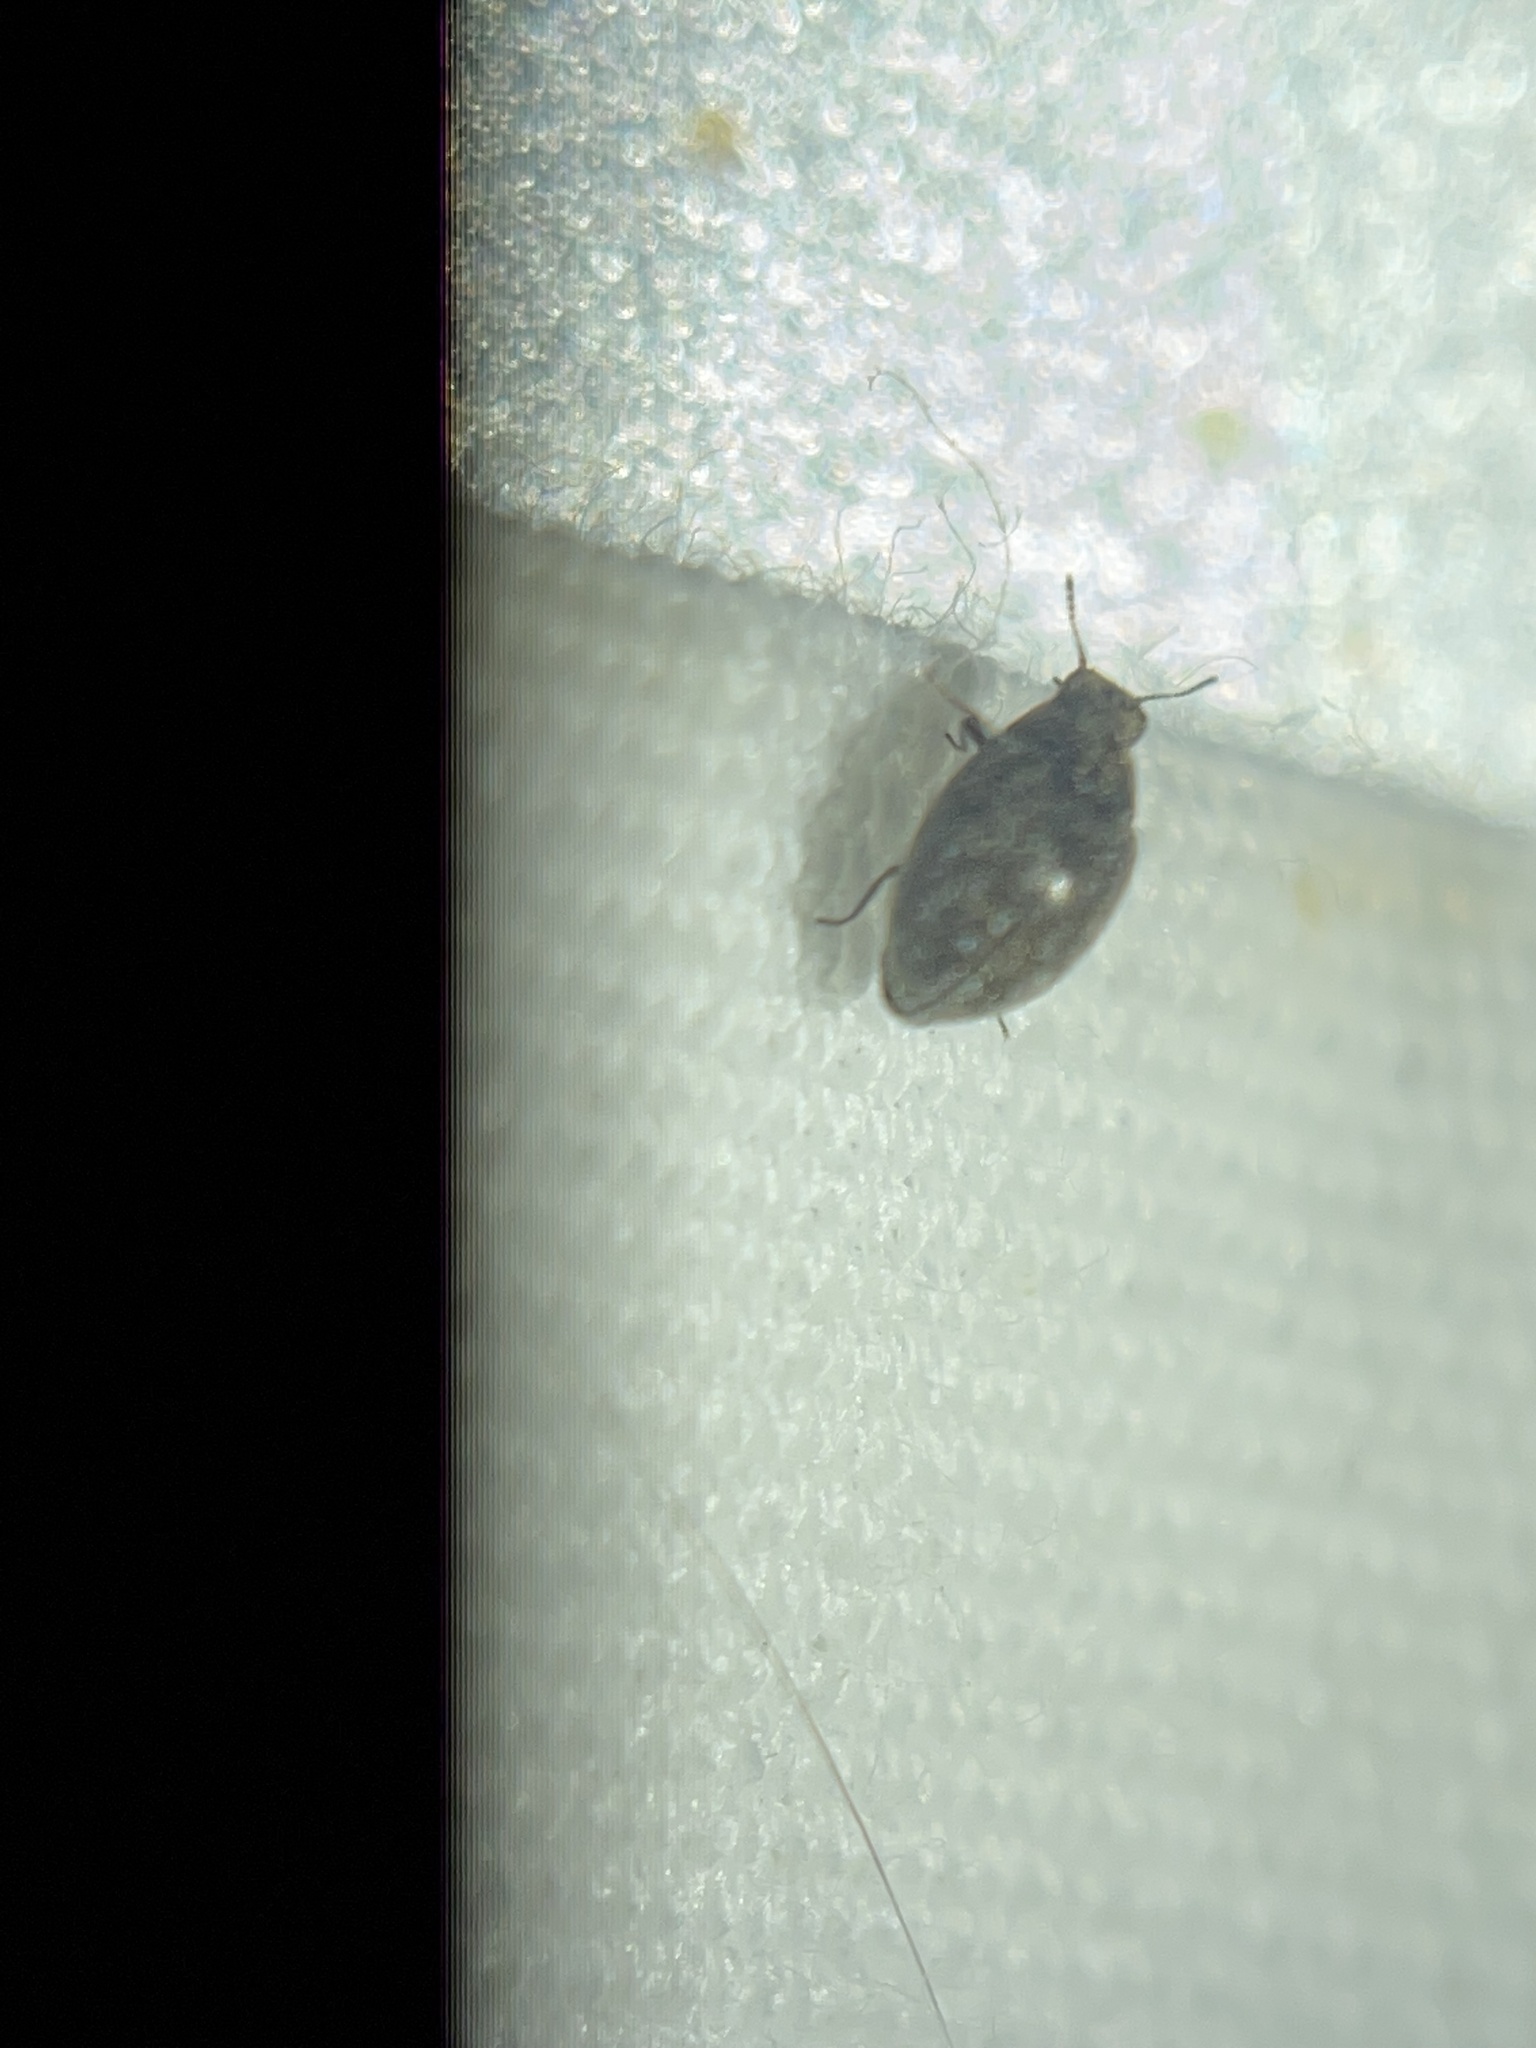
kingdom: Animalia
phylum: Arthropoda
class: Insecta
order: Coleoptera
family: Limnichidae
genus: Eulimnichus
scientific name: Eulimnichus ater
